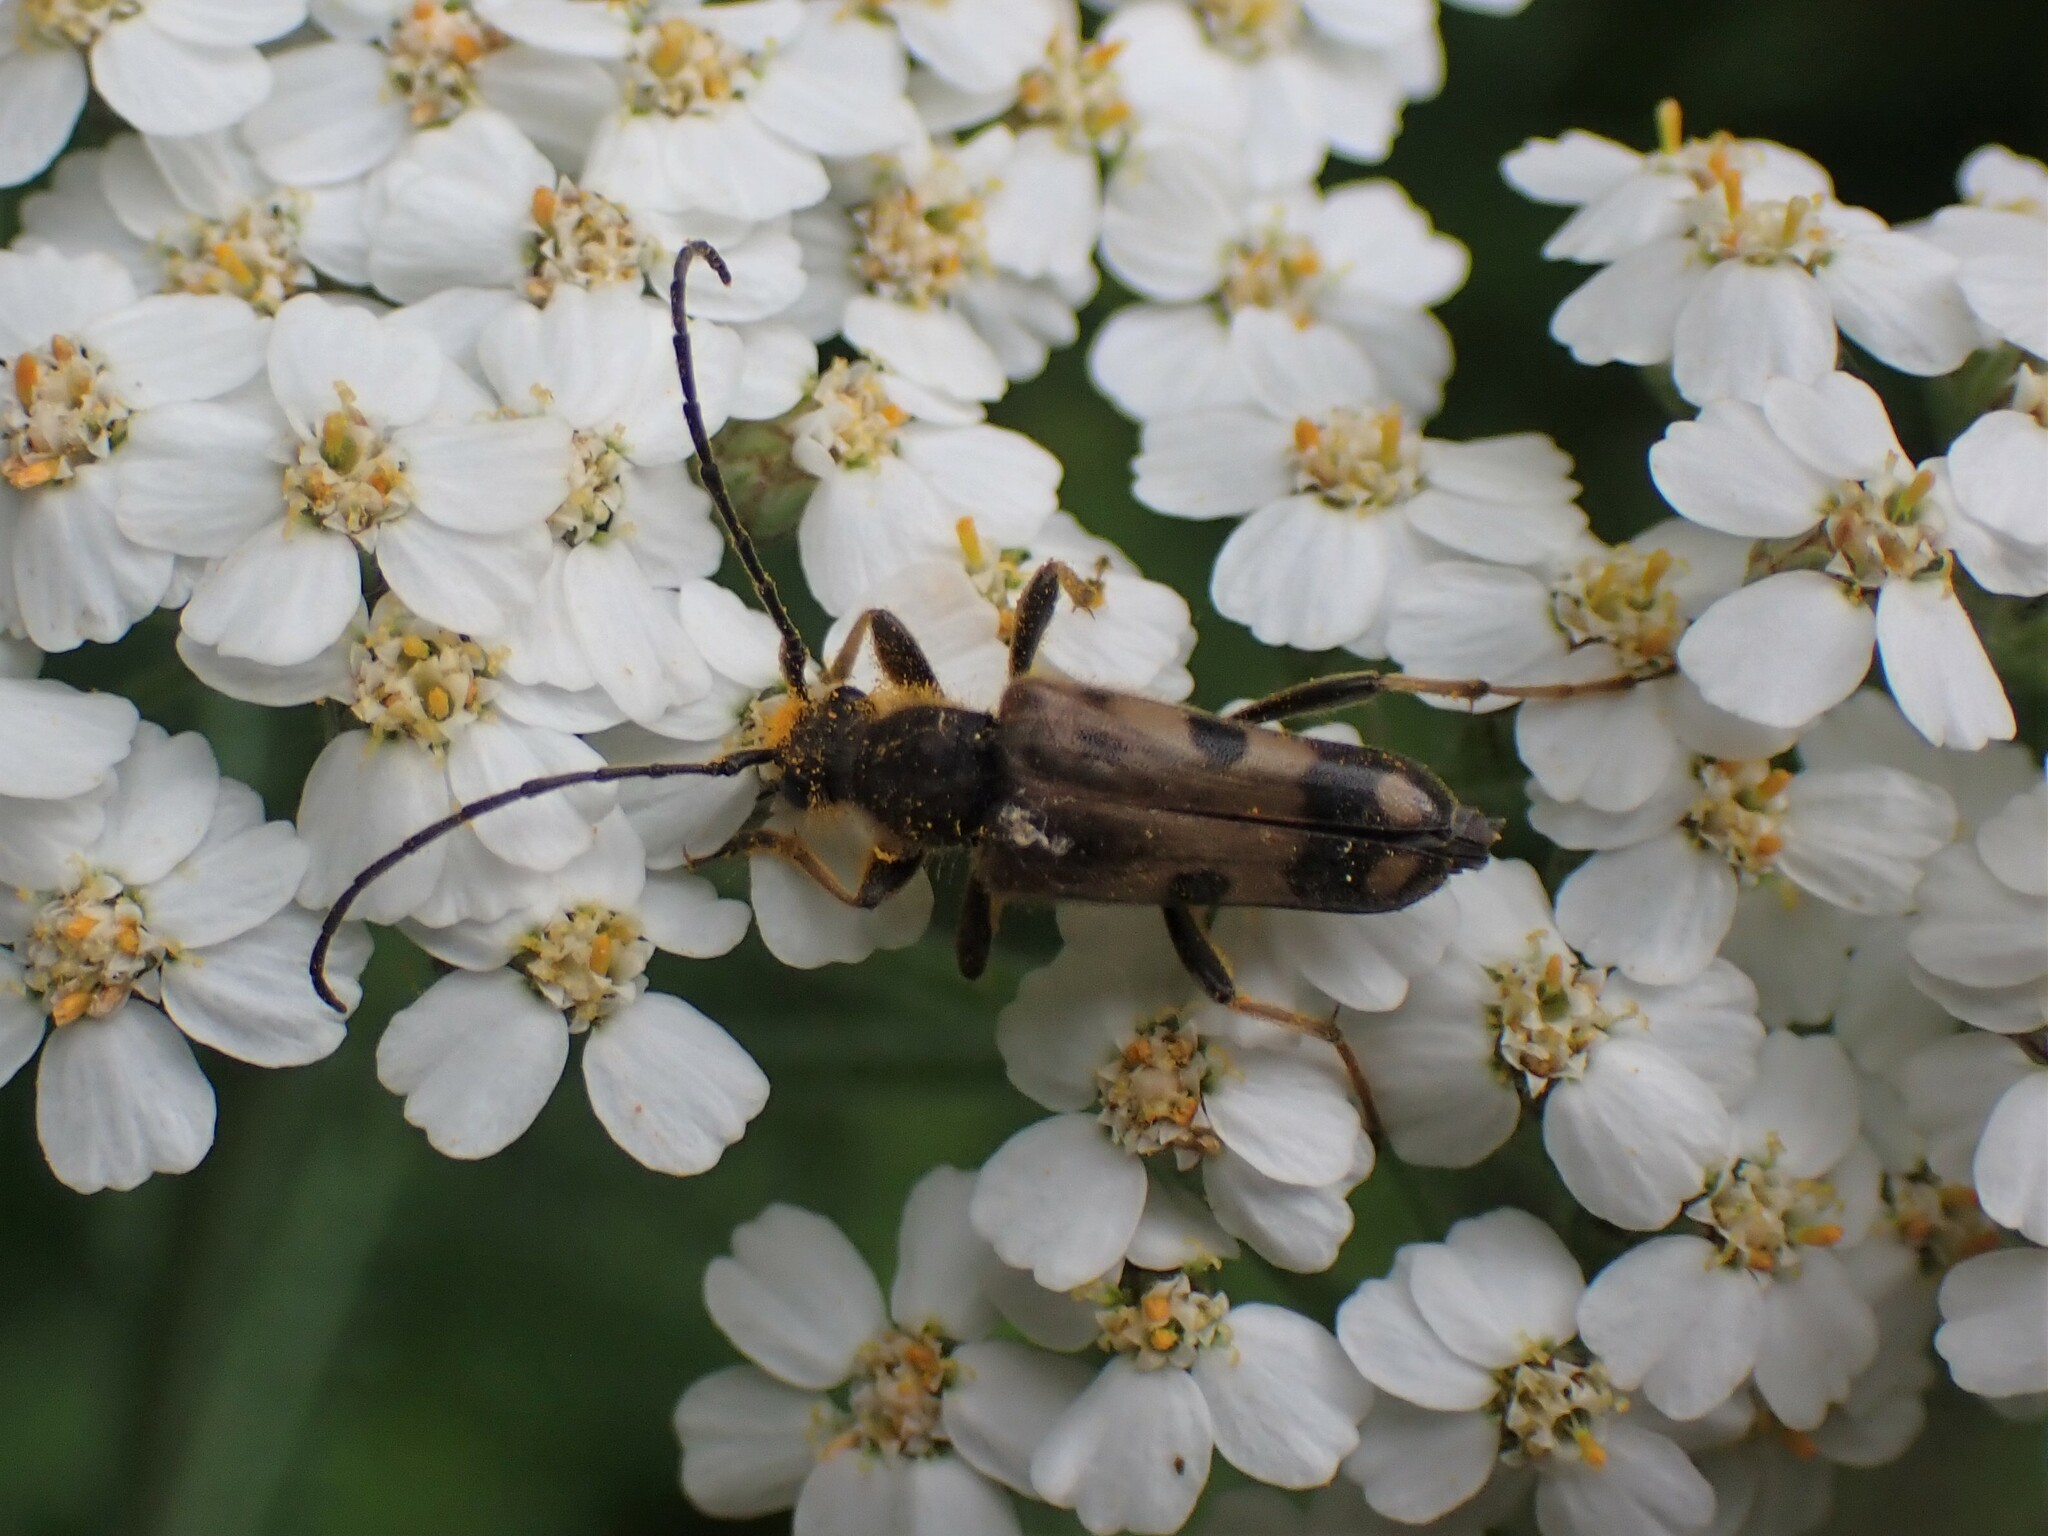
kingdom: Animalia
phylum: Arthropoda
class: Insecta
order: Coleoptera
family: Cerambycidae
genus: Xestoleptura
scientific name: Xestoleptura tibialis
